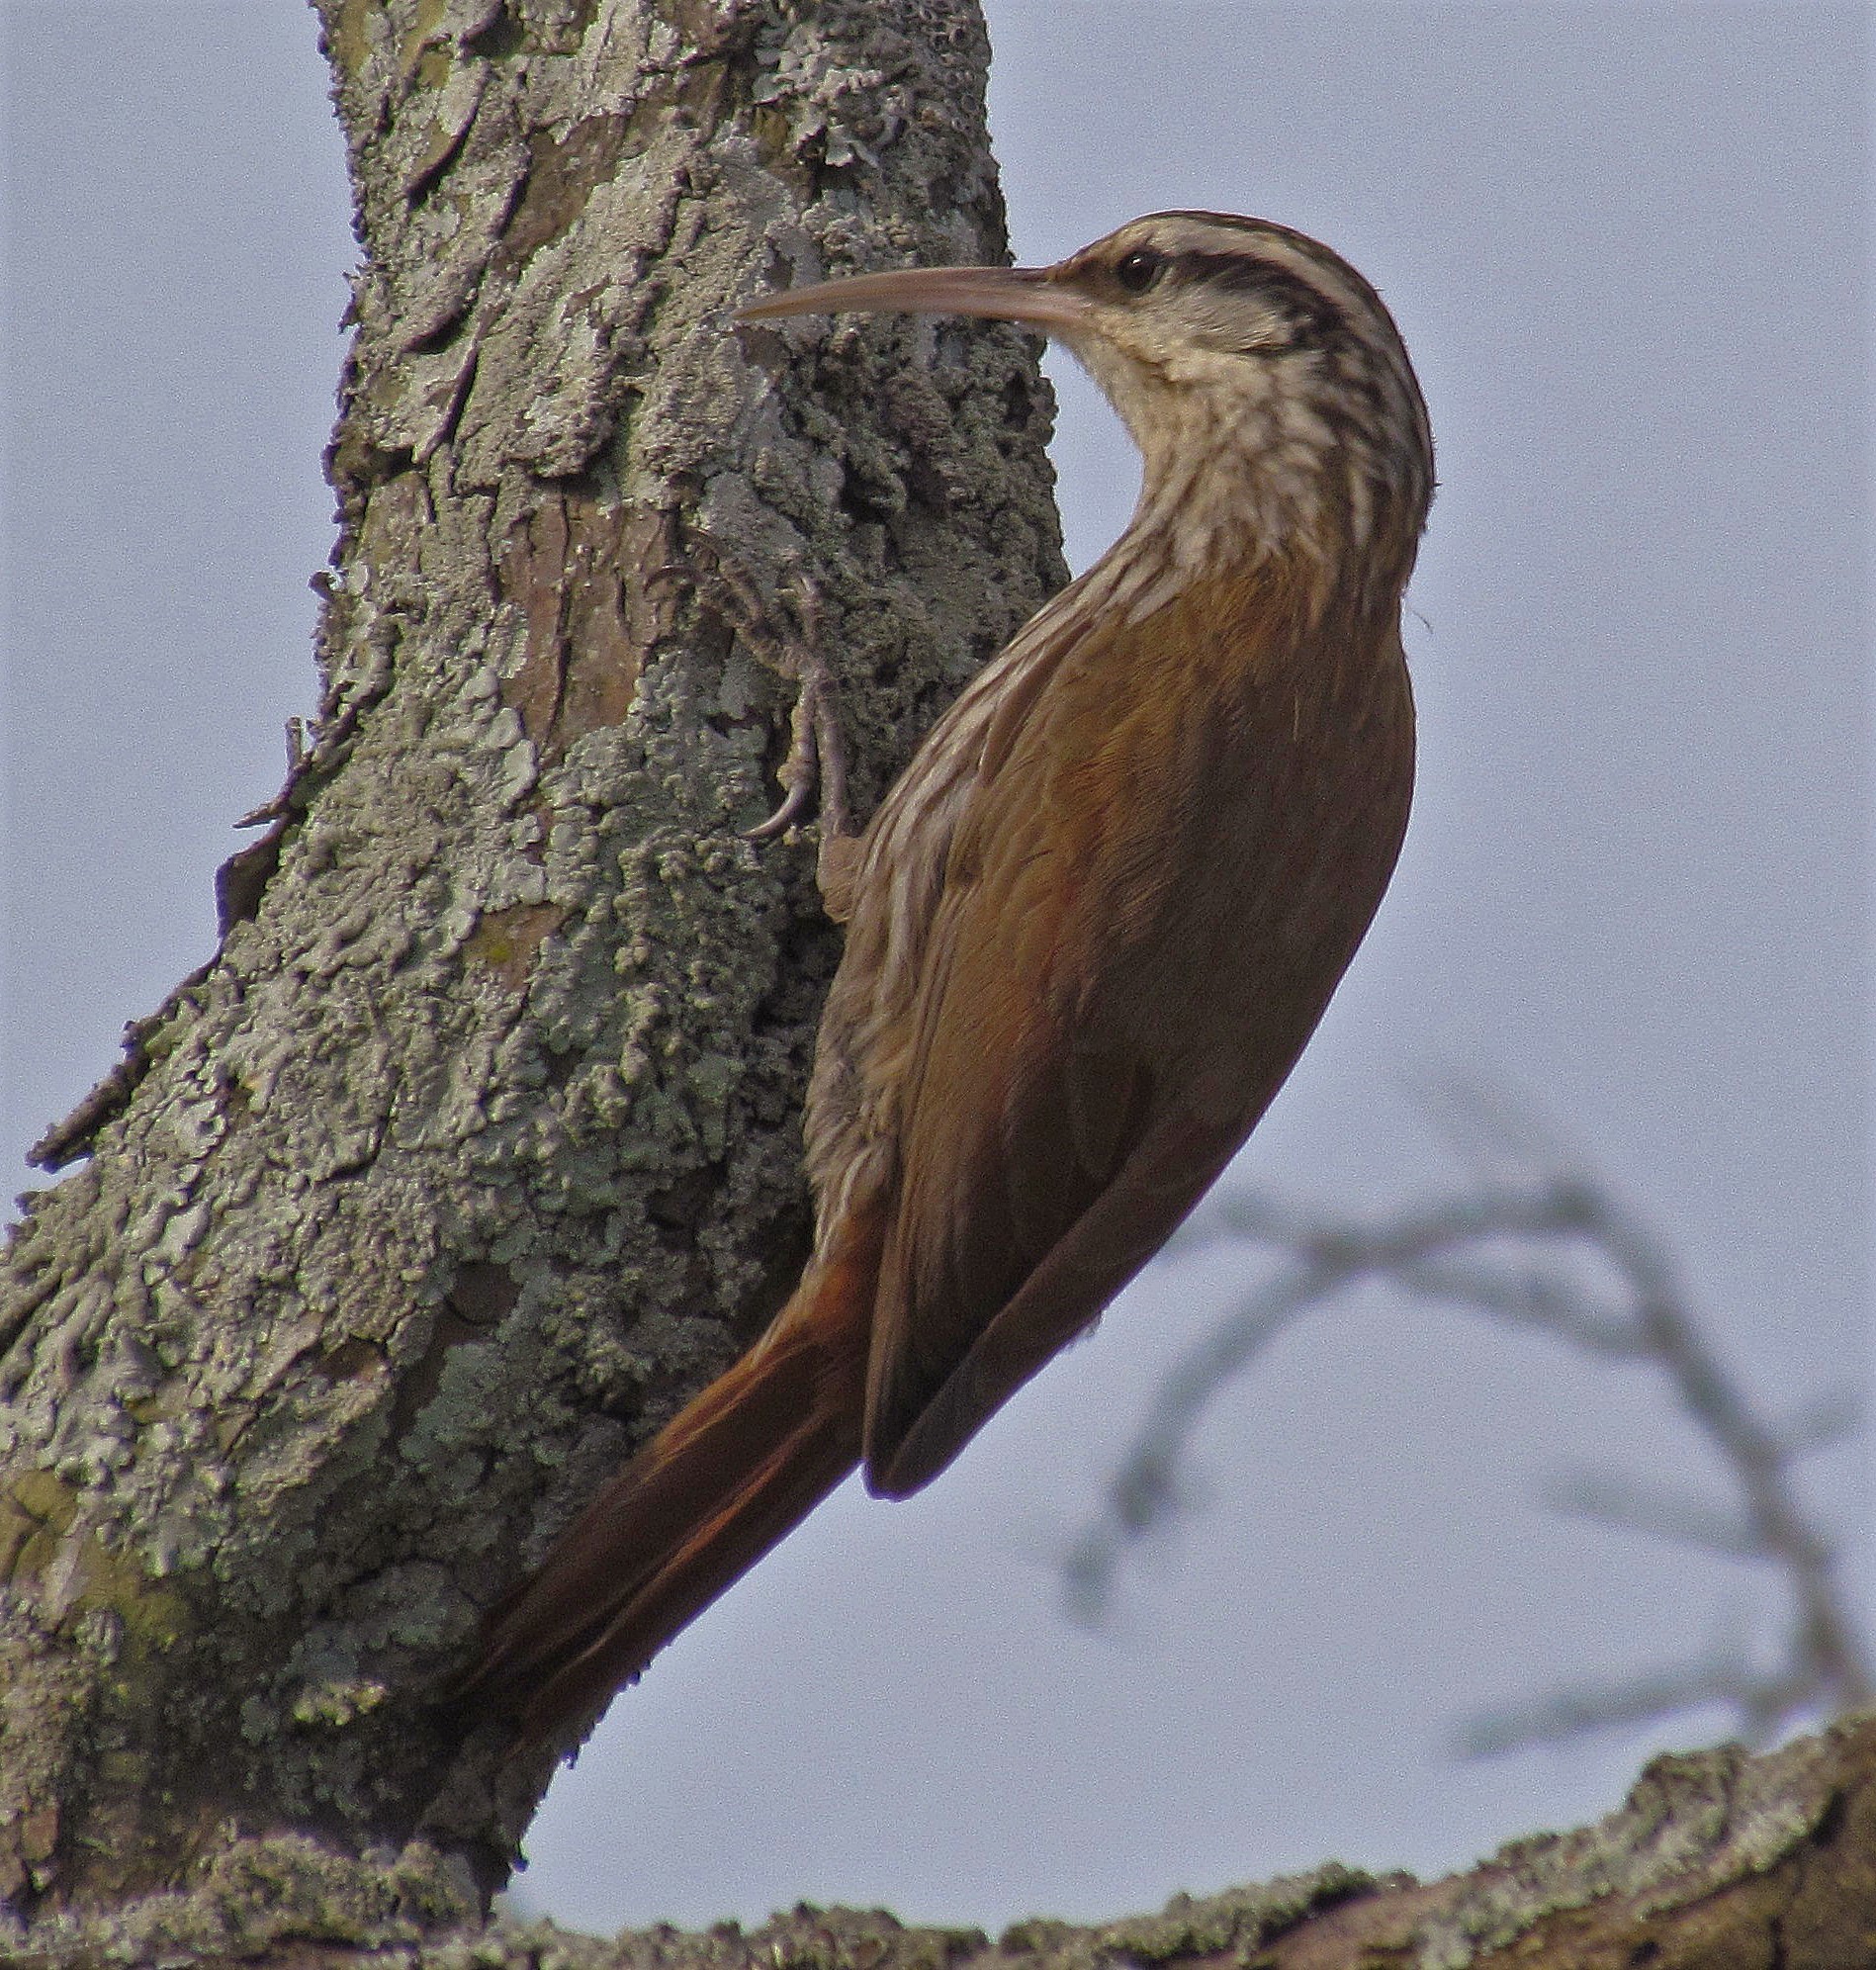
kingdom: Animalia
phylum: Chordata
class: Aves
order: Passeriformes
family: Furnariidae
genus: Lepidocolaptes
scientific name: Lepidocolaptes angustirostris
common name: Narrow-billed woodcreeper
